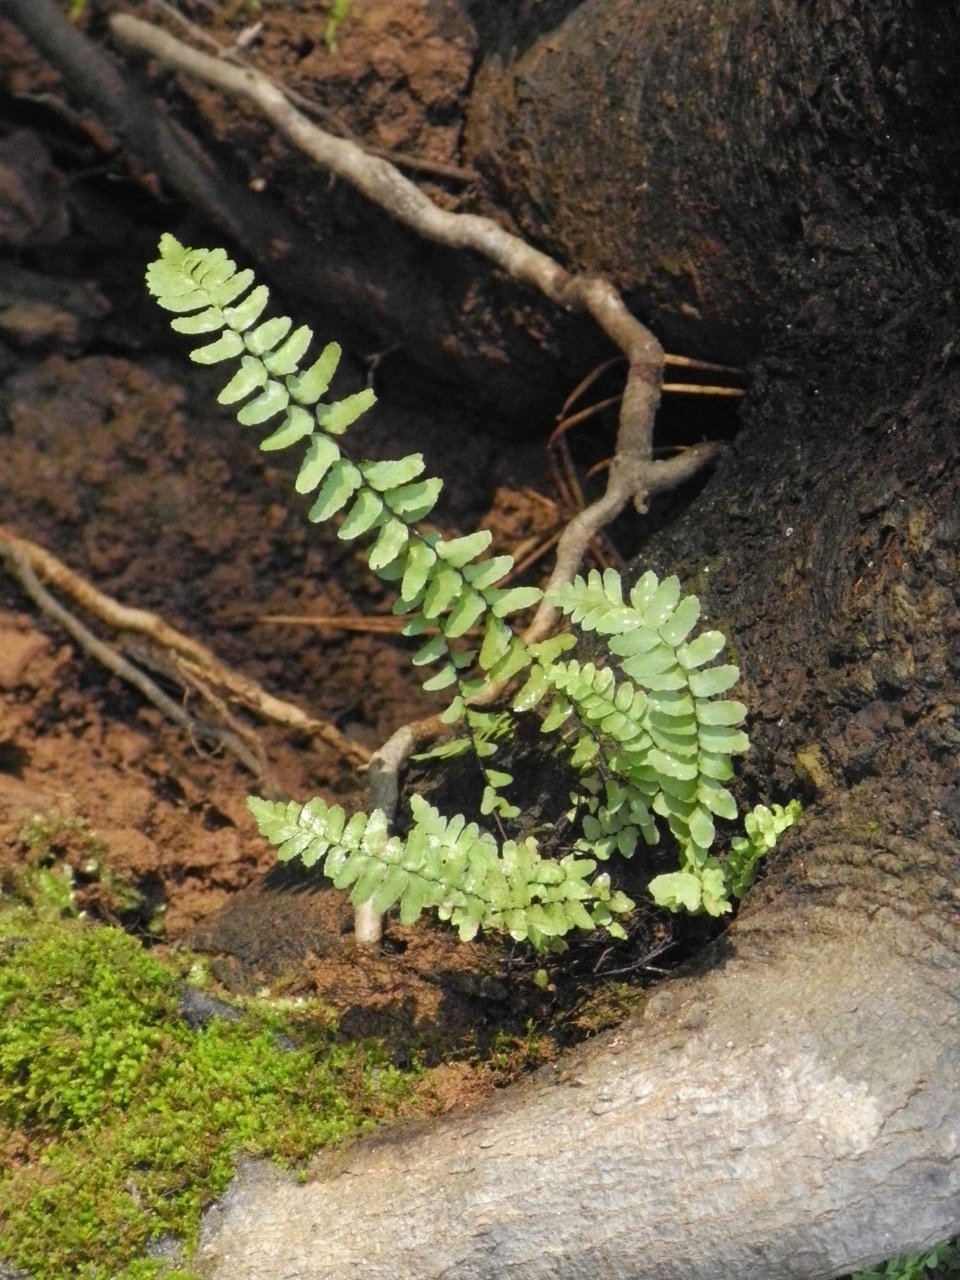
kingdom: Plantae
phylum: Tracheophyta
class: Polypodiopsida
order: Polypodiales
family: Aspleniaceae
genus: Asplenium
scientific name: Asplenium platyneuron
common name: Ebony spleenwort
